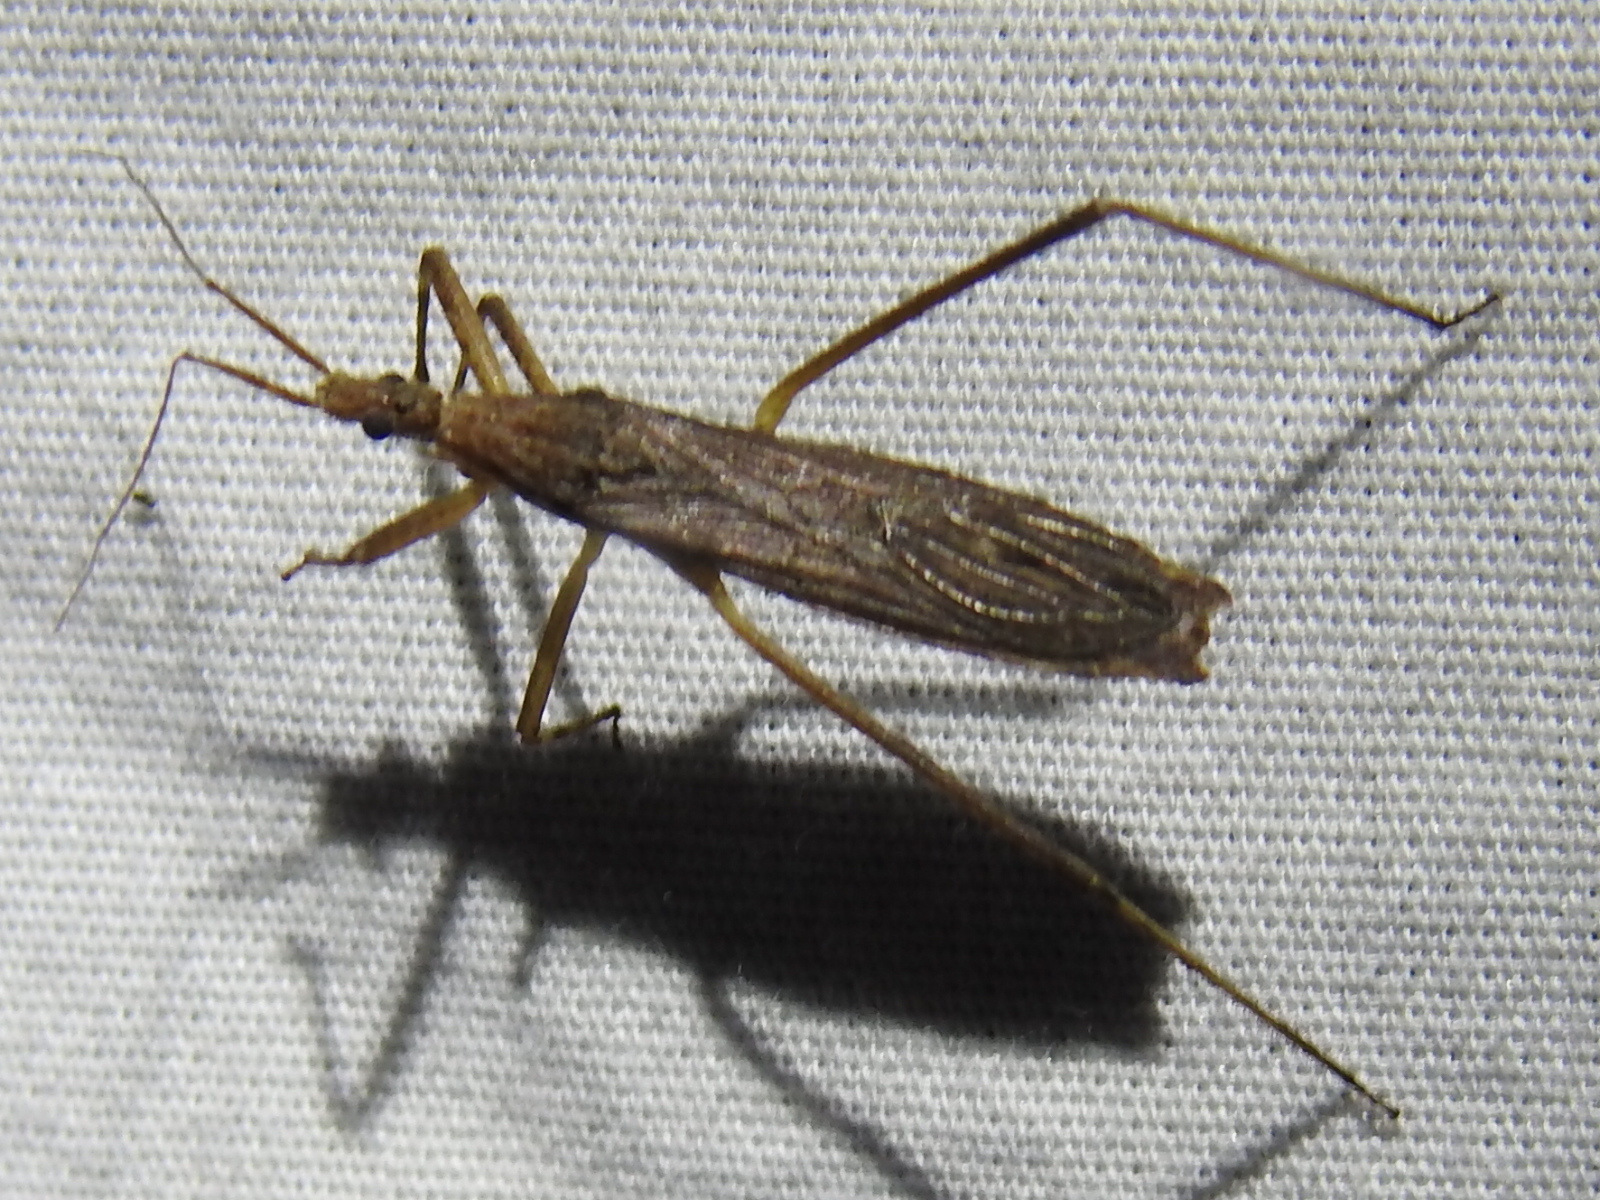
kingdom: Animalia
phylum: Arthropoda
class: Insecta
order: Hemiptera
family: Reduviidae
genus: Pygolampis
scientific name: Pygolampis pectoralis
